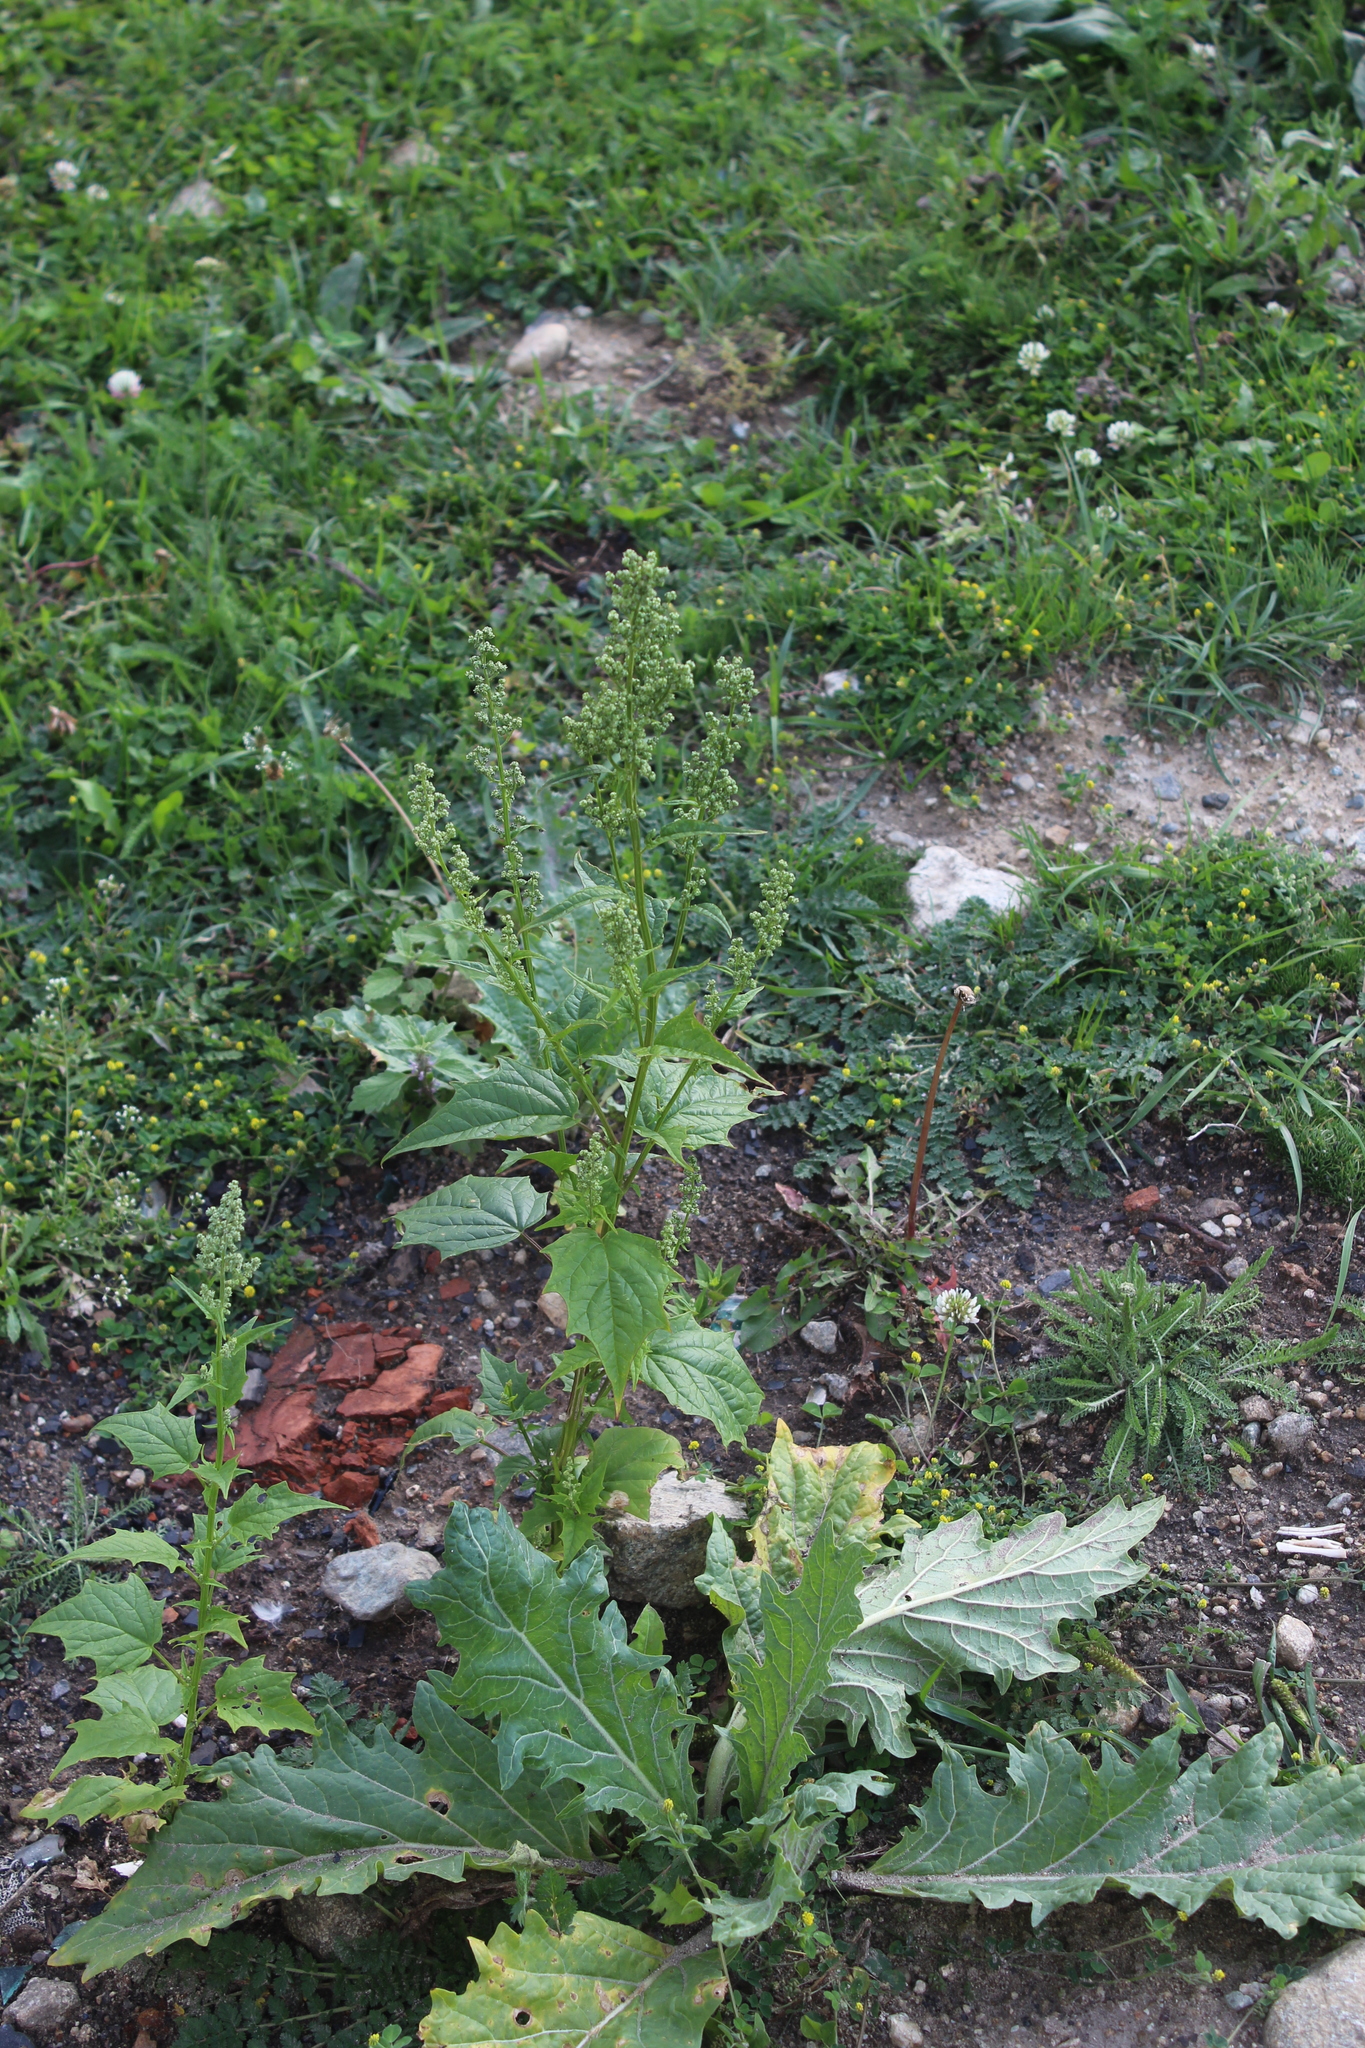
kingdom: Plantae
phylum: Tracheophyta
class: Magnoliopsida
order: Caryophyllales
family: Amaranthaceae
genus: Chenopodiastrum
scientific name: Chenopodiastrum hybridum
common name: Mapleleaf goosefoot
